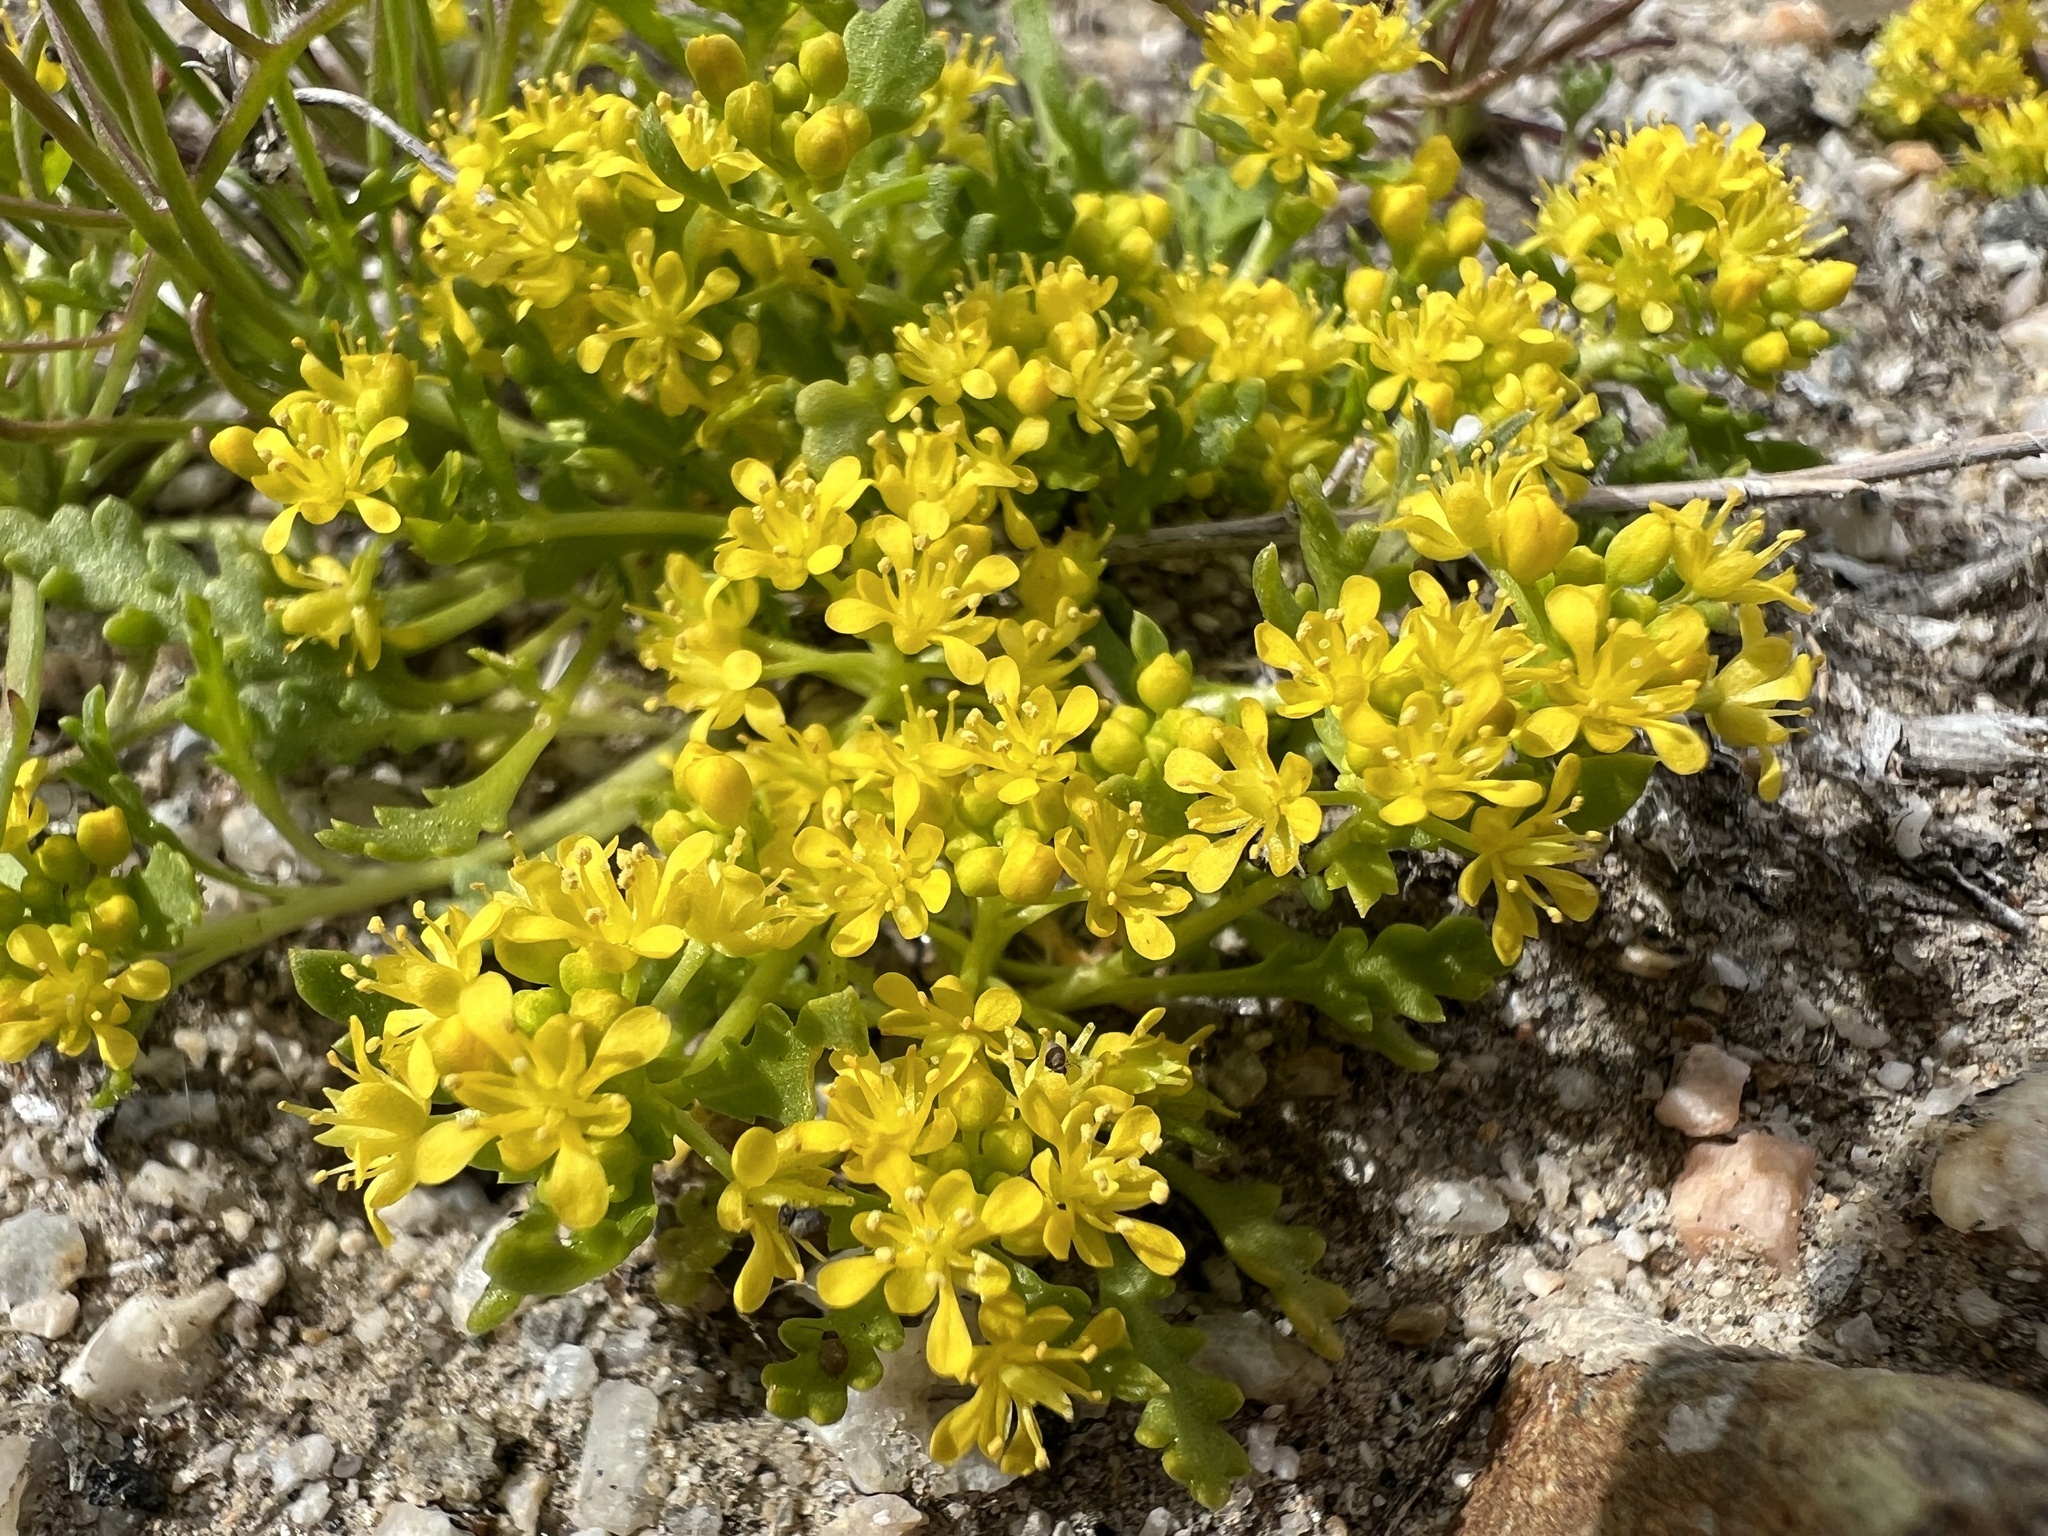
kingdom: Plantae
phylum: Tracheophyta
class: Magnoliopsida
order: Brassicales
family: Brassicaceae
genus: Lepidium
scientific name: Lepidium flavum
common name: Yellow pepperwort
